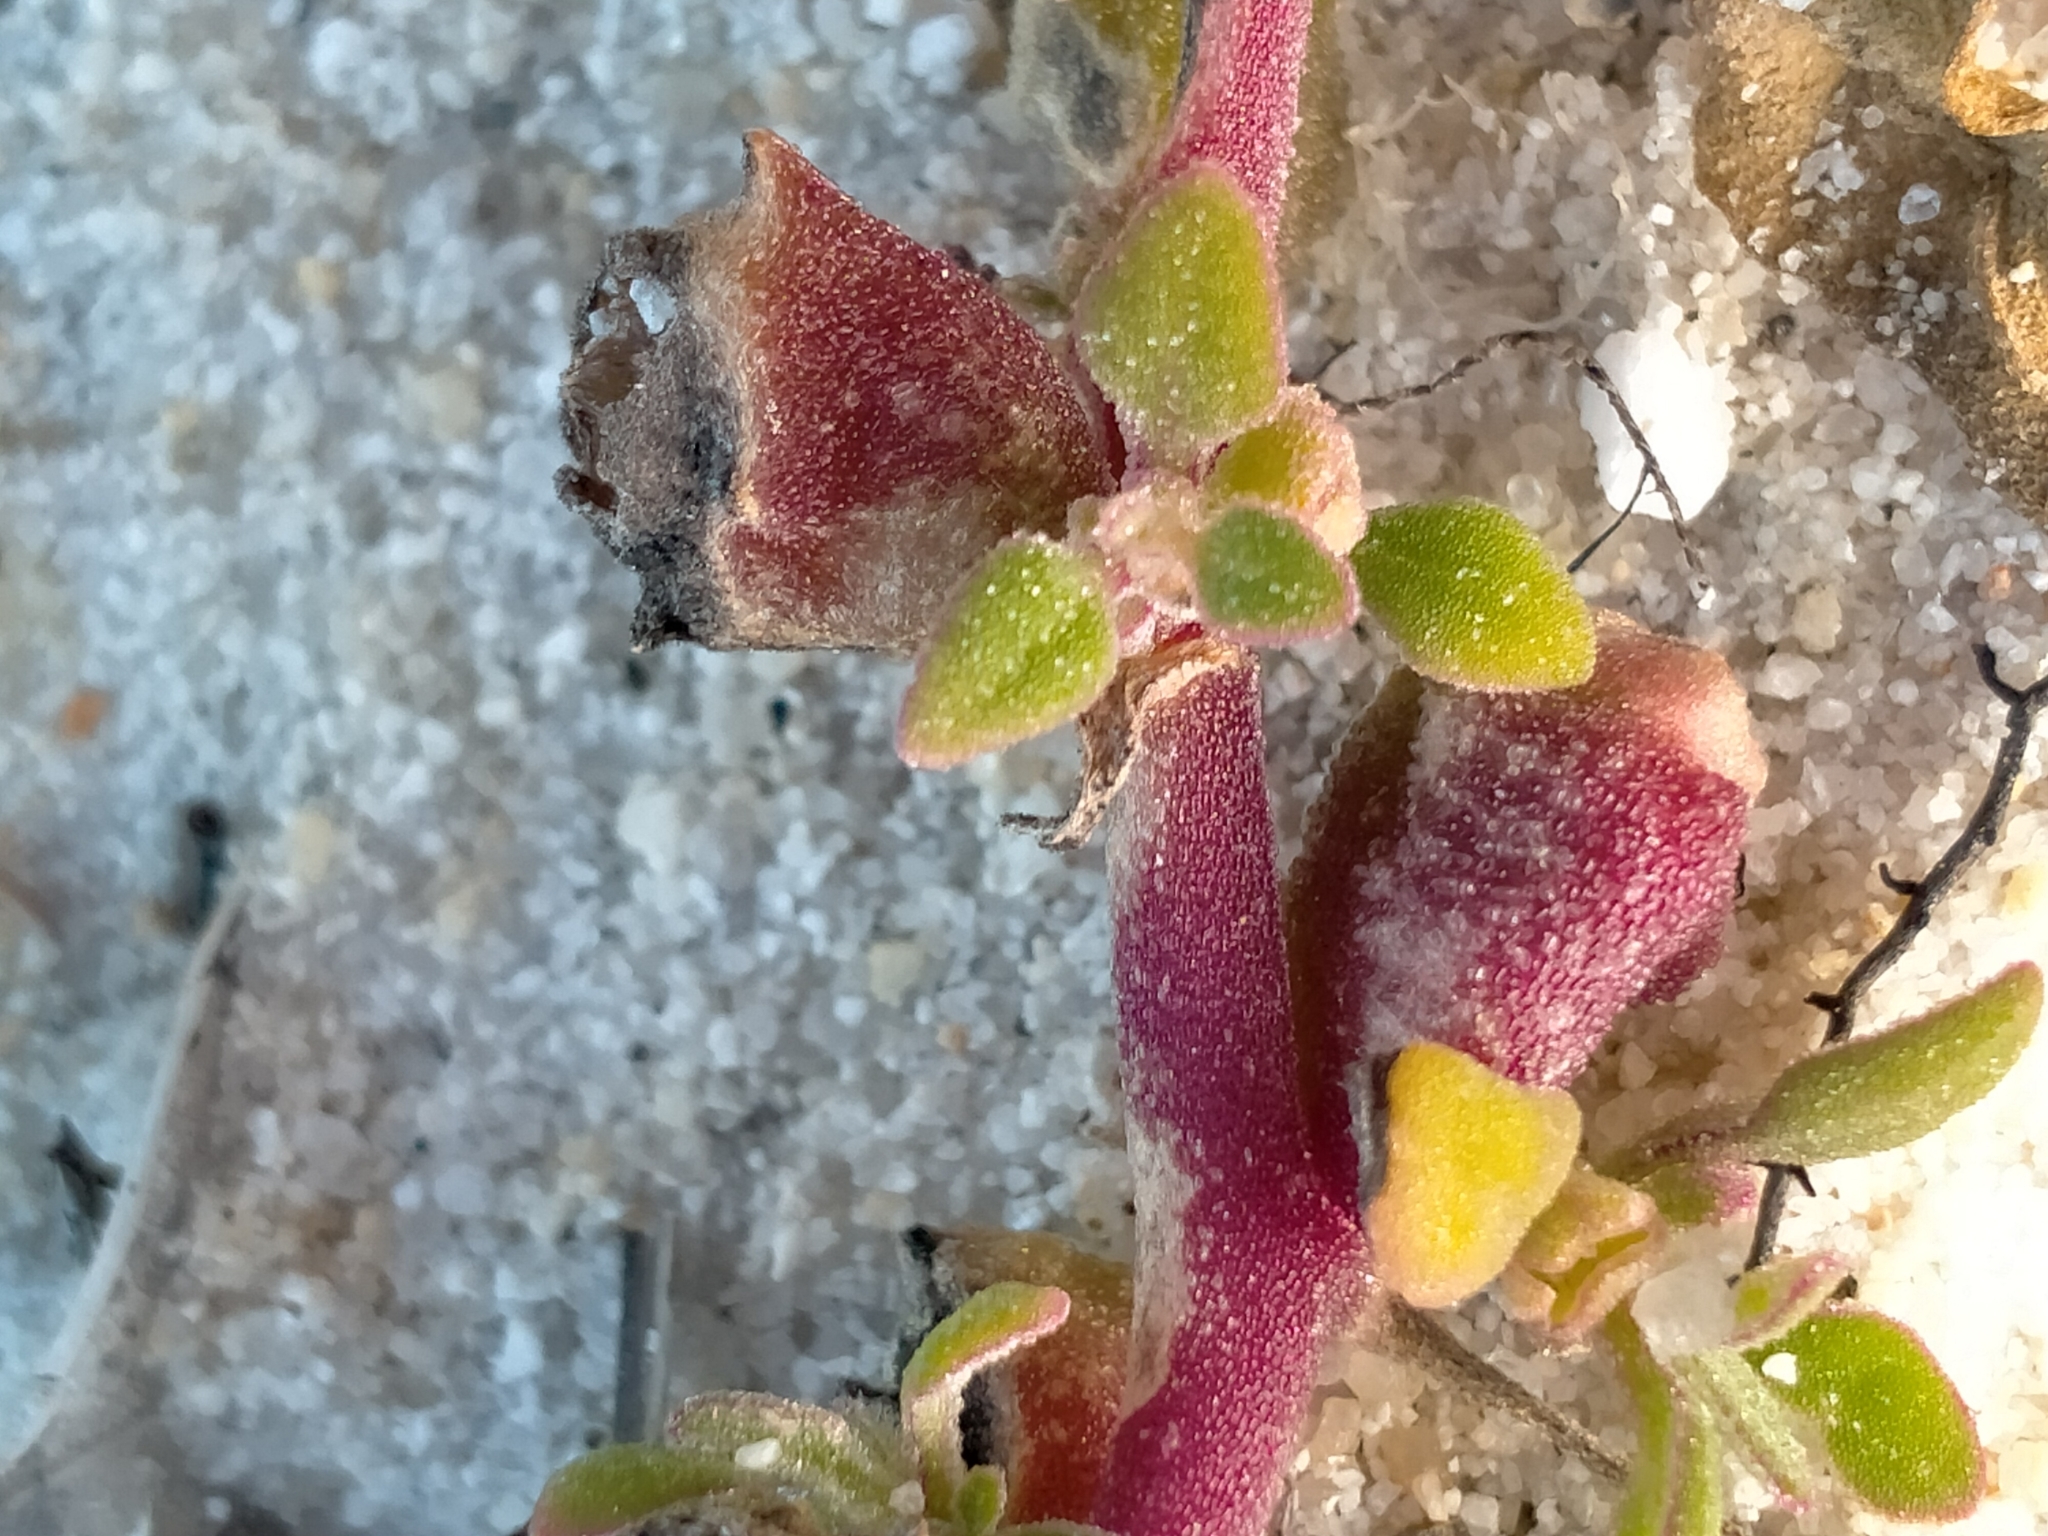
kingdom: Plantae
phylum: Tracheophyta
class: Magnoliopsida
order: Caryophyllales
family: Aizoaceae
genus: Tetragonia
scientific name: Tetragonia tetragonoides
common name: New zealand-spinach
